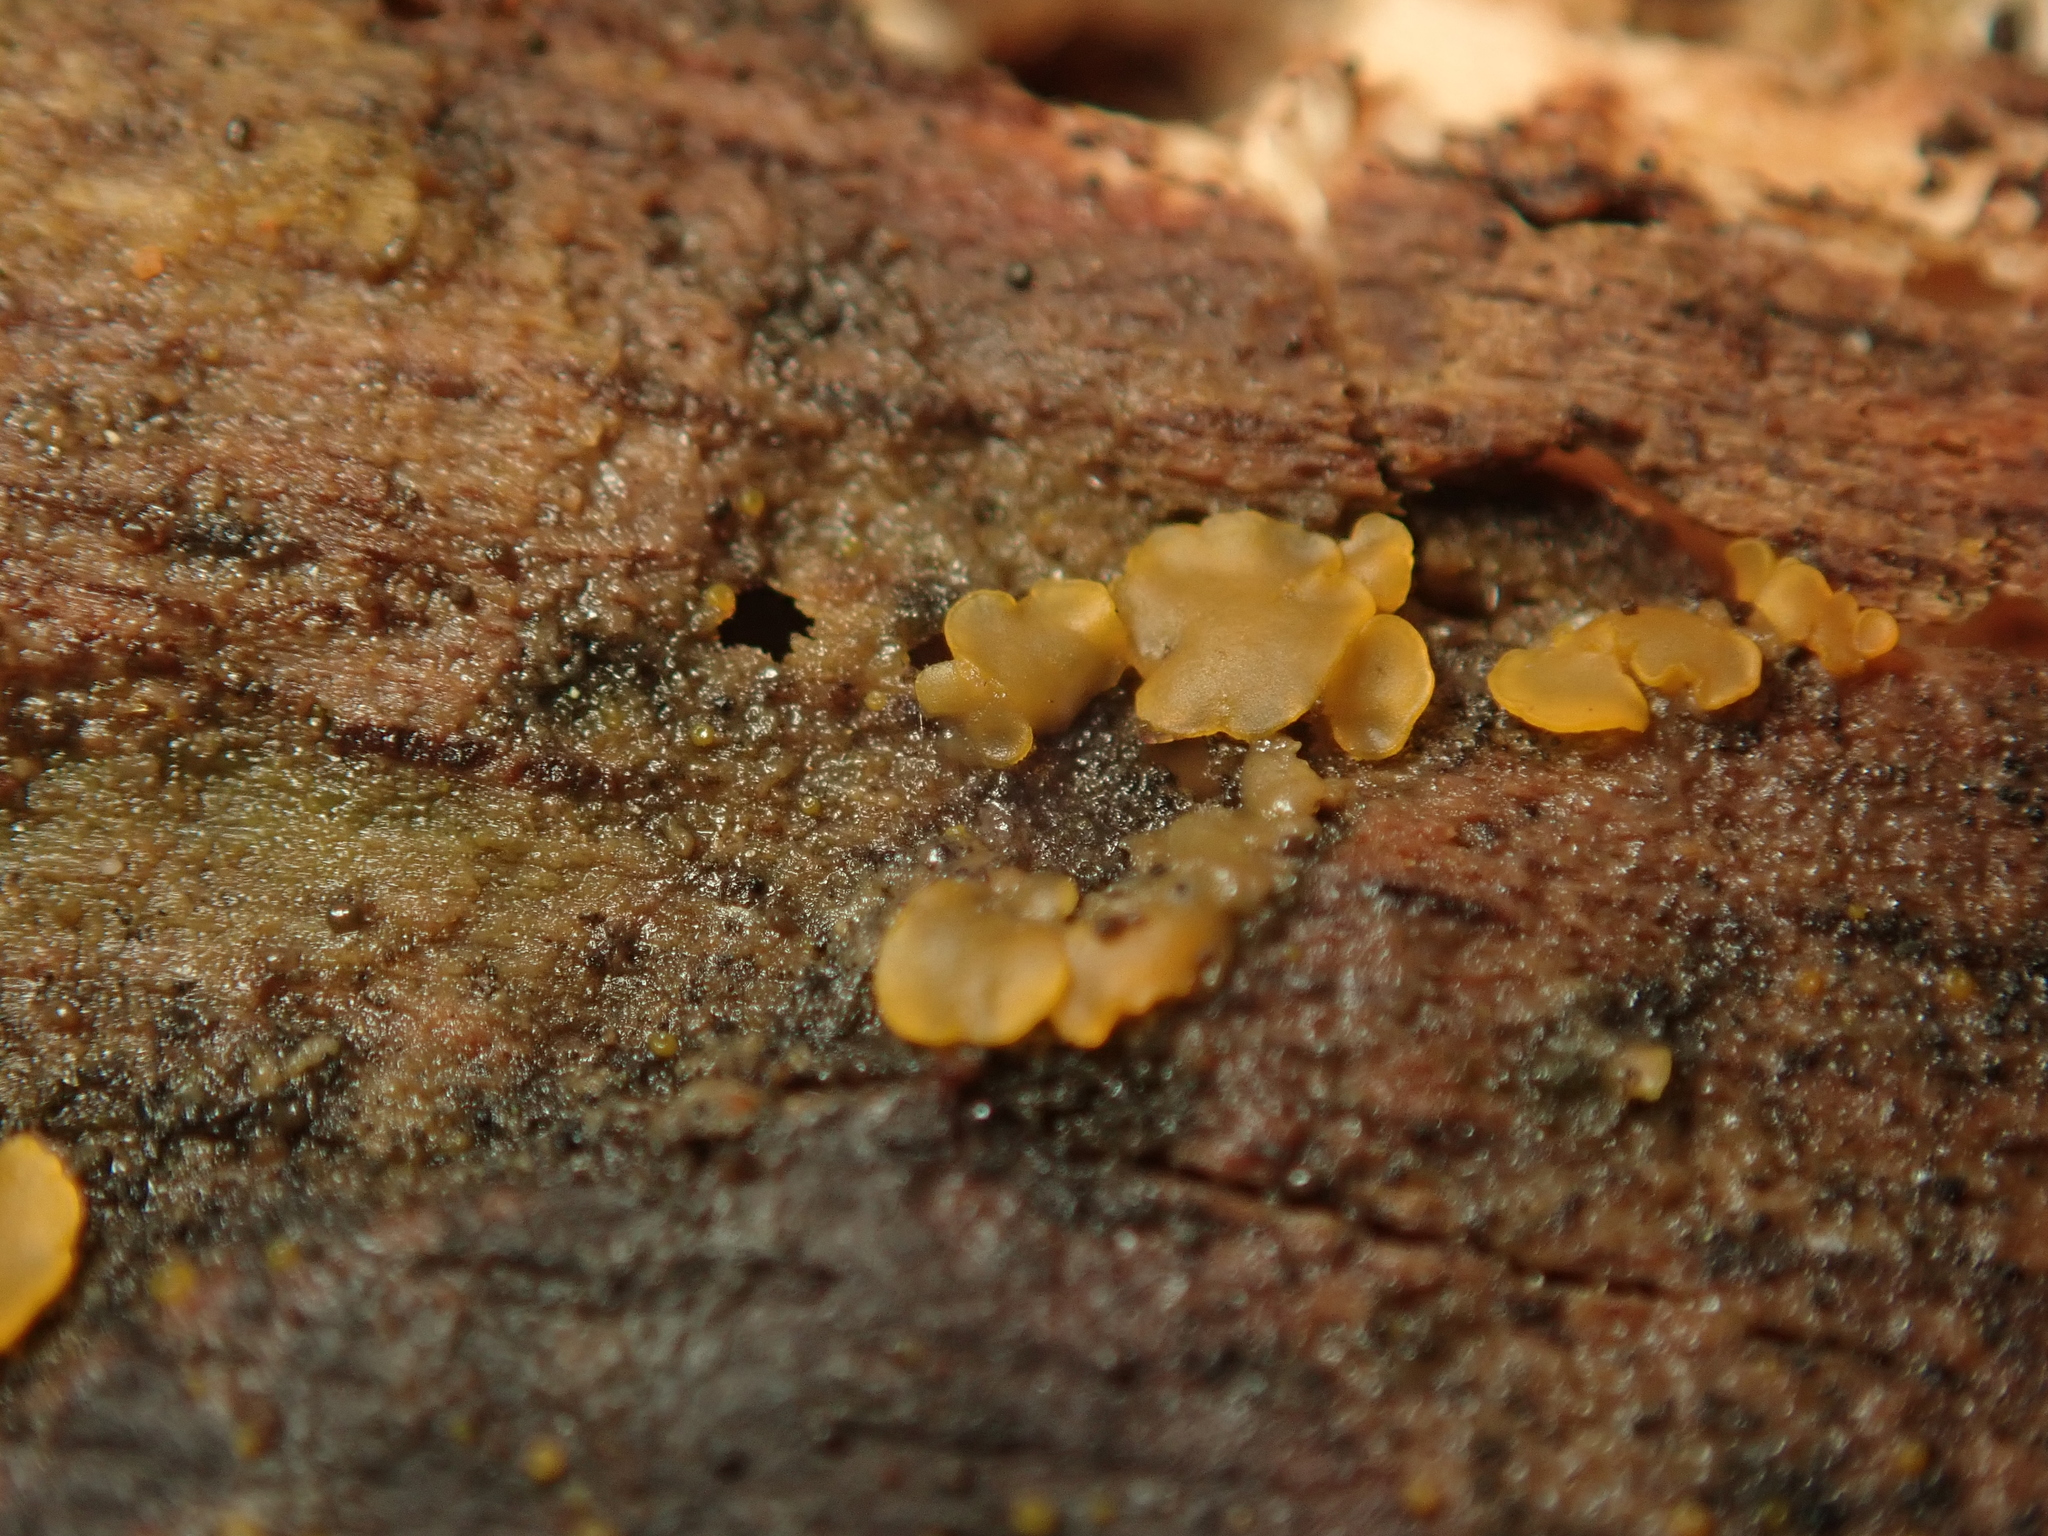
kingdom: Fungi
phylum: Ascomycota
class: Orbiliomycetes
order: Orbiliales
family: Orbiliaceae
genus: Orbilia
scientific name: Orbilia
